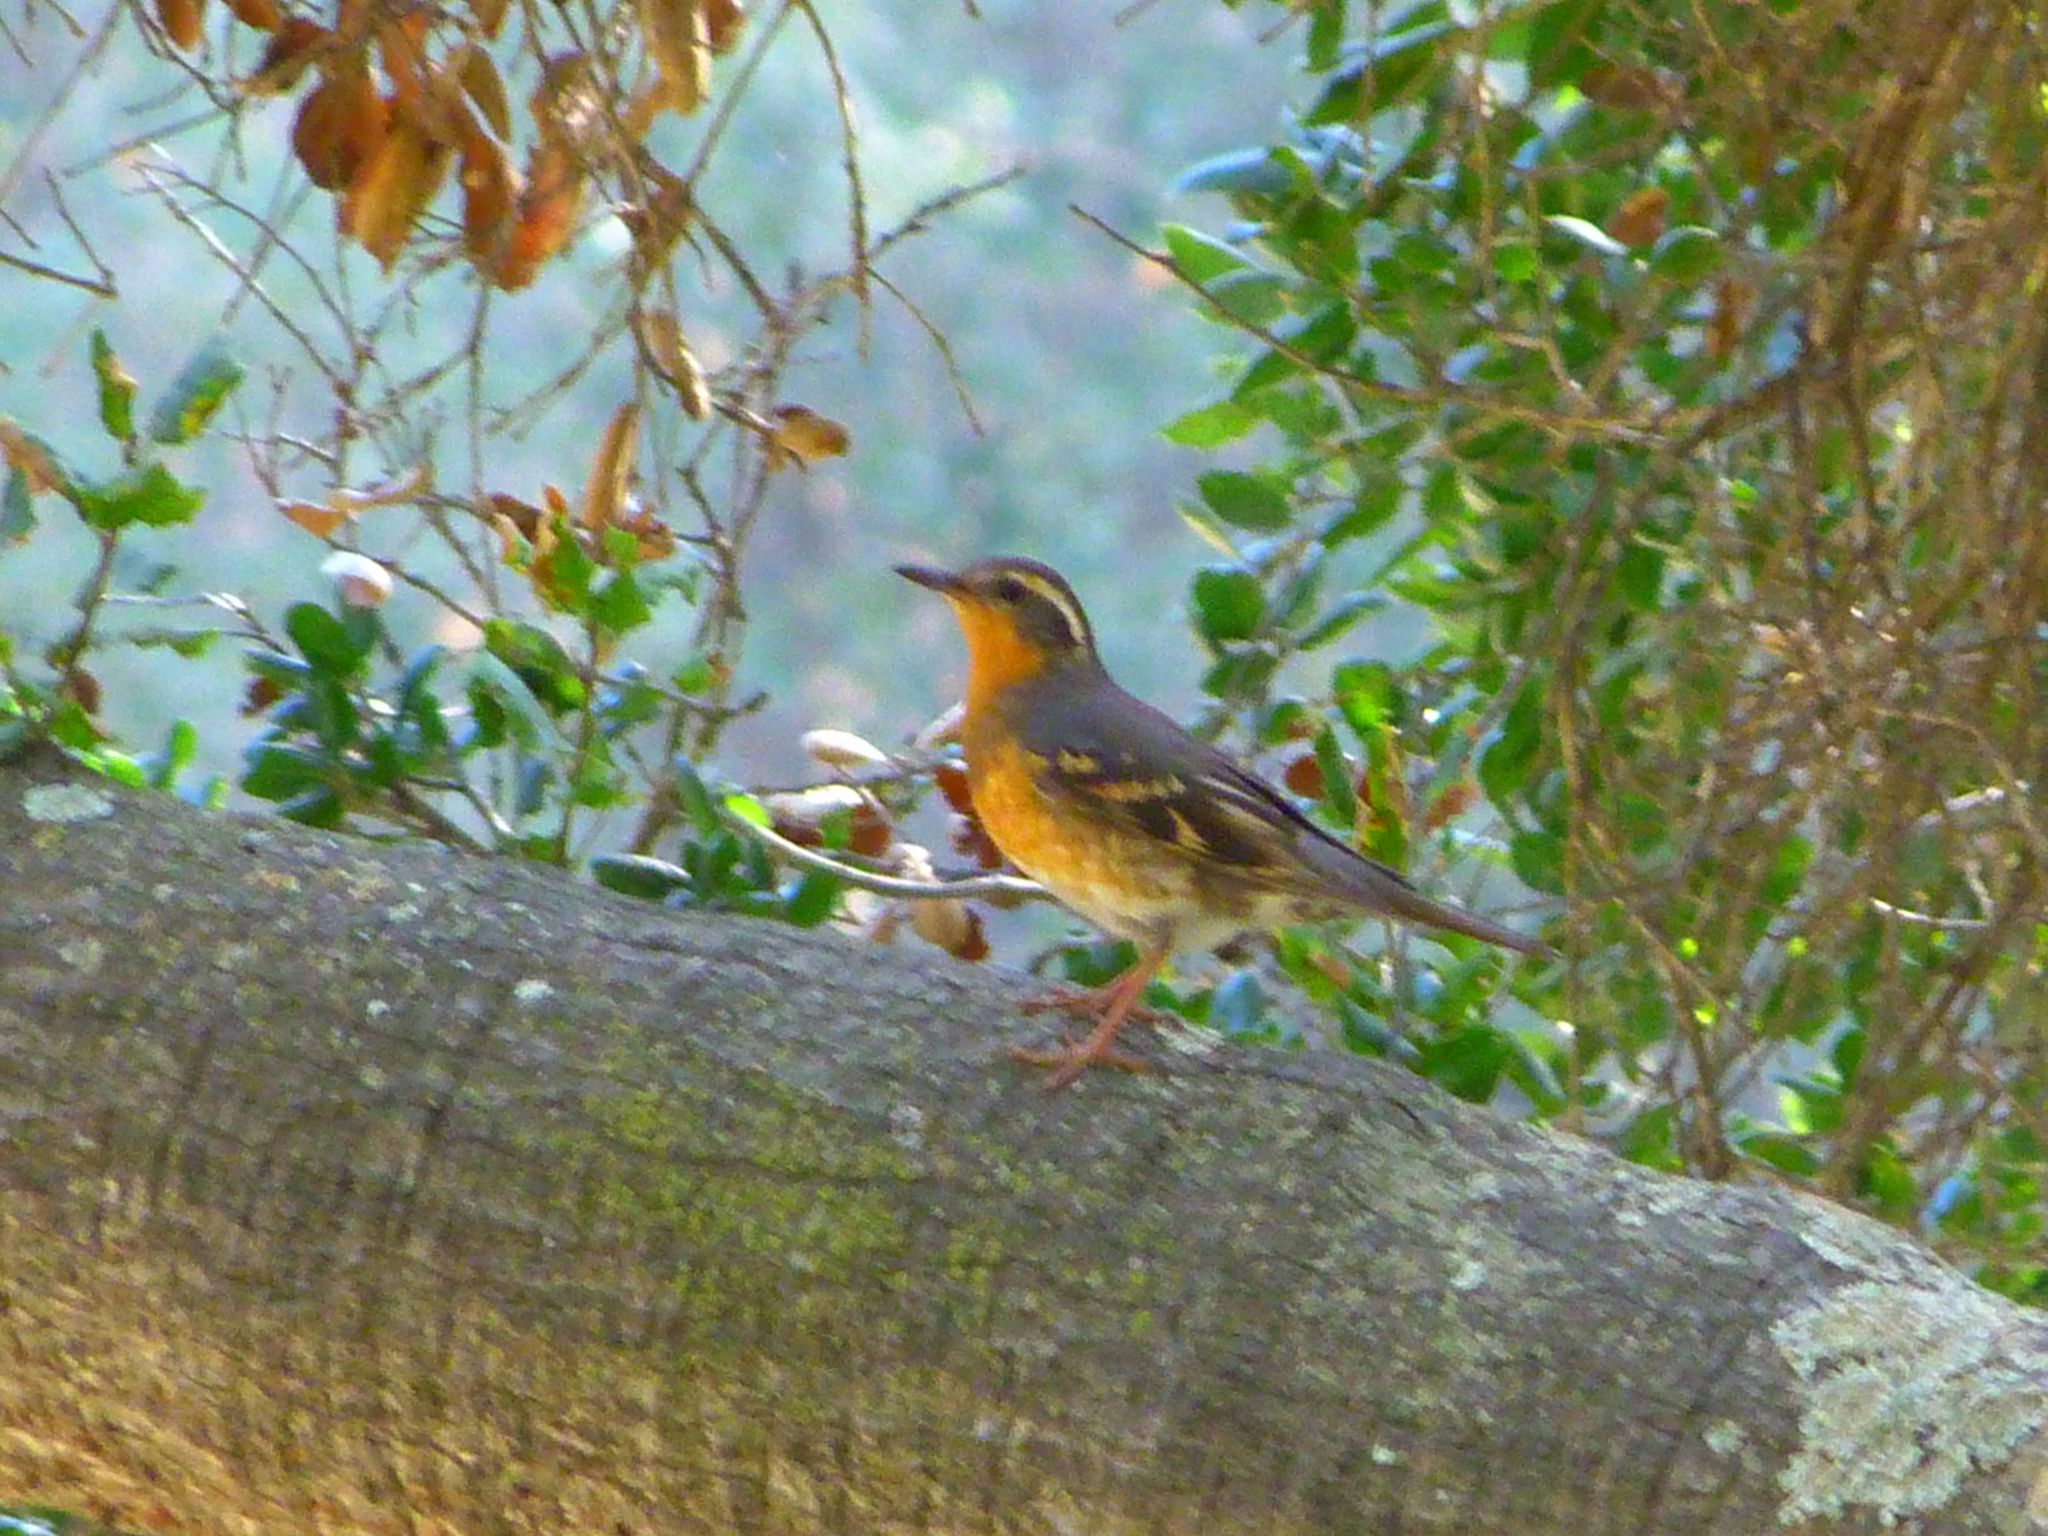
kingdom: Animalia
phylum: Chordata
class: Aves
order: Passeriformes
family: Turdidae
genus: Ixoreus
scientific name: Ixoreus naevius
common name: Varied thrush
